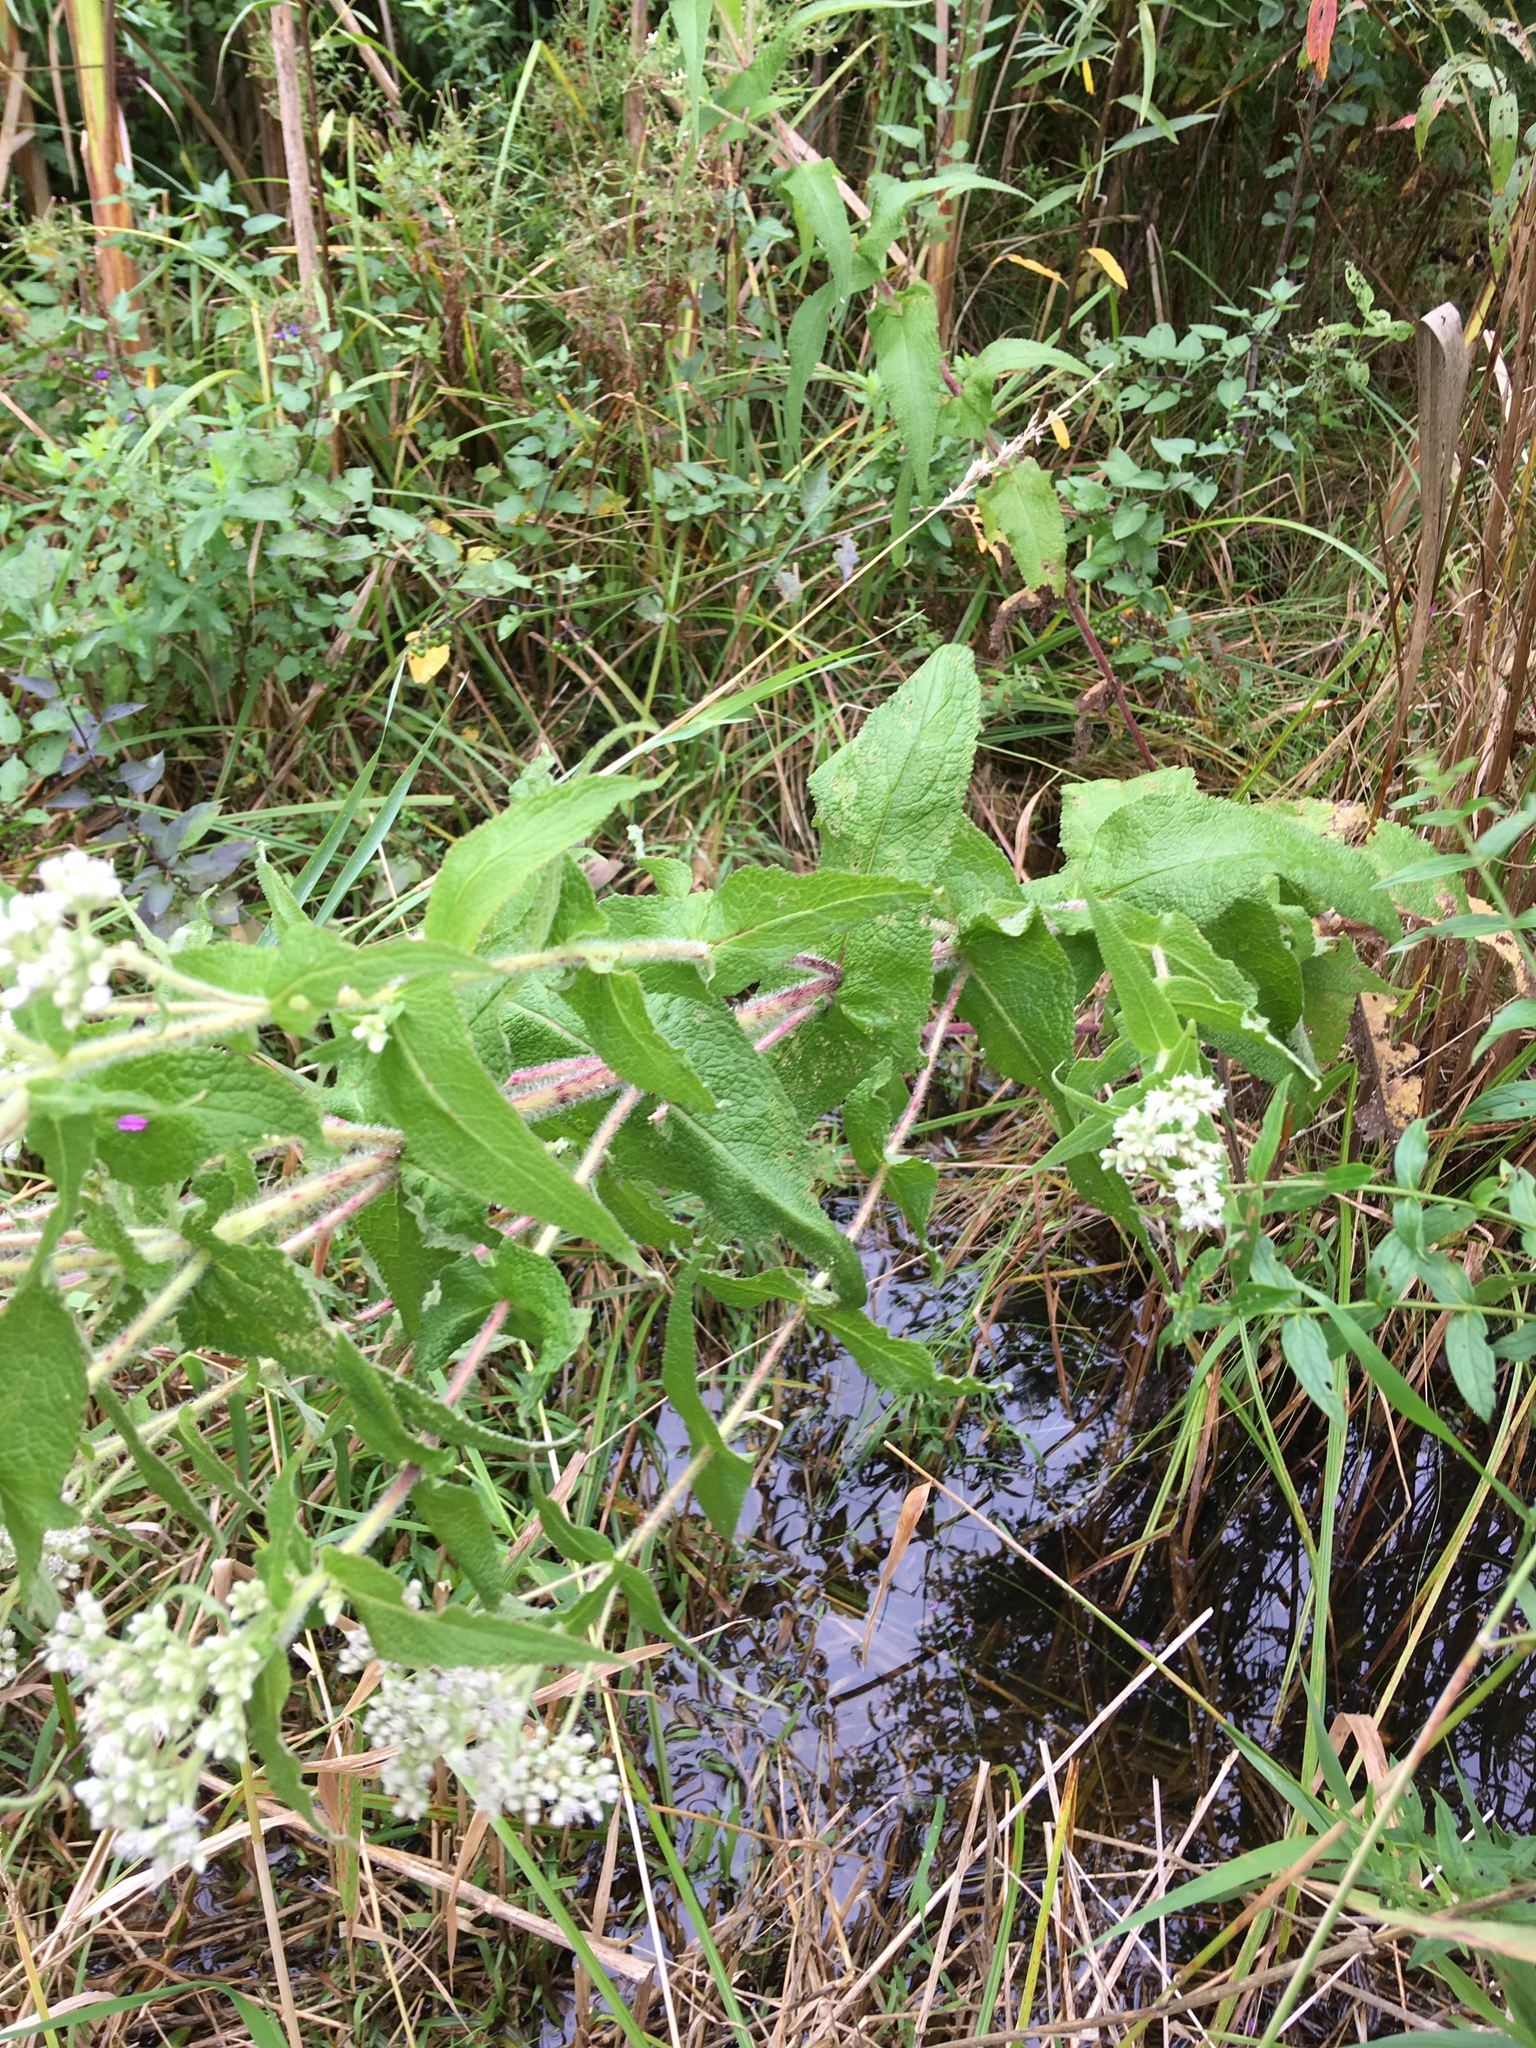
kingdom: Plantae
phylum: Tracheophyta
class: Magnoliopsida
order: Asterales
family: Asteraceae
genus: Eupatorium
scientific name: Eupatorium perfoliatum
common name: Boneset
